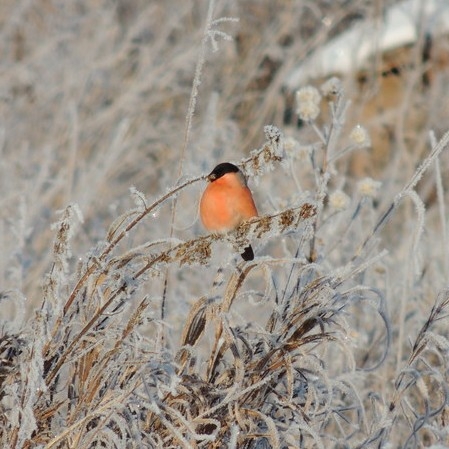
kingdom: Animalia
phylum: Chordata
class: Aves
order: Passeriformes
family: Fringillidae
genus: Pyrrhula
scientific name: Pyrrhula pyrrhula
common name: Eurasian bullfinch
